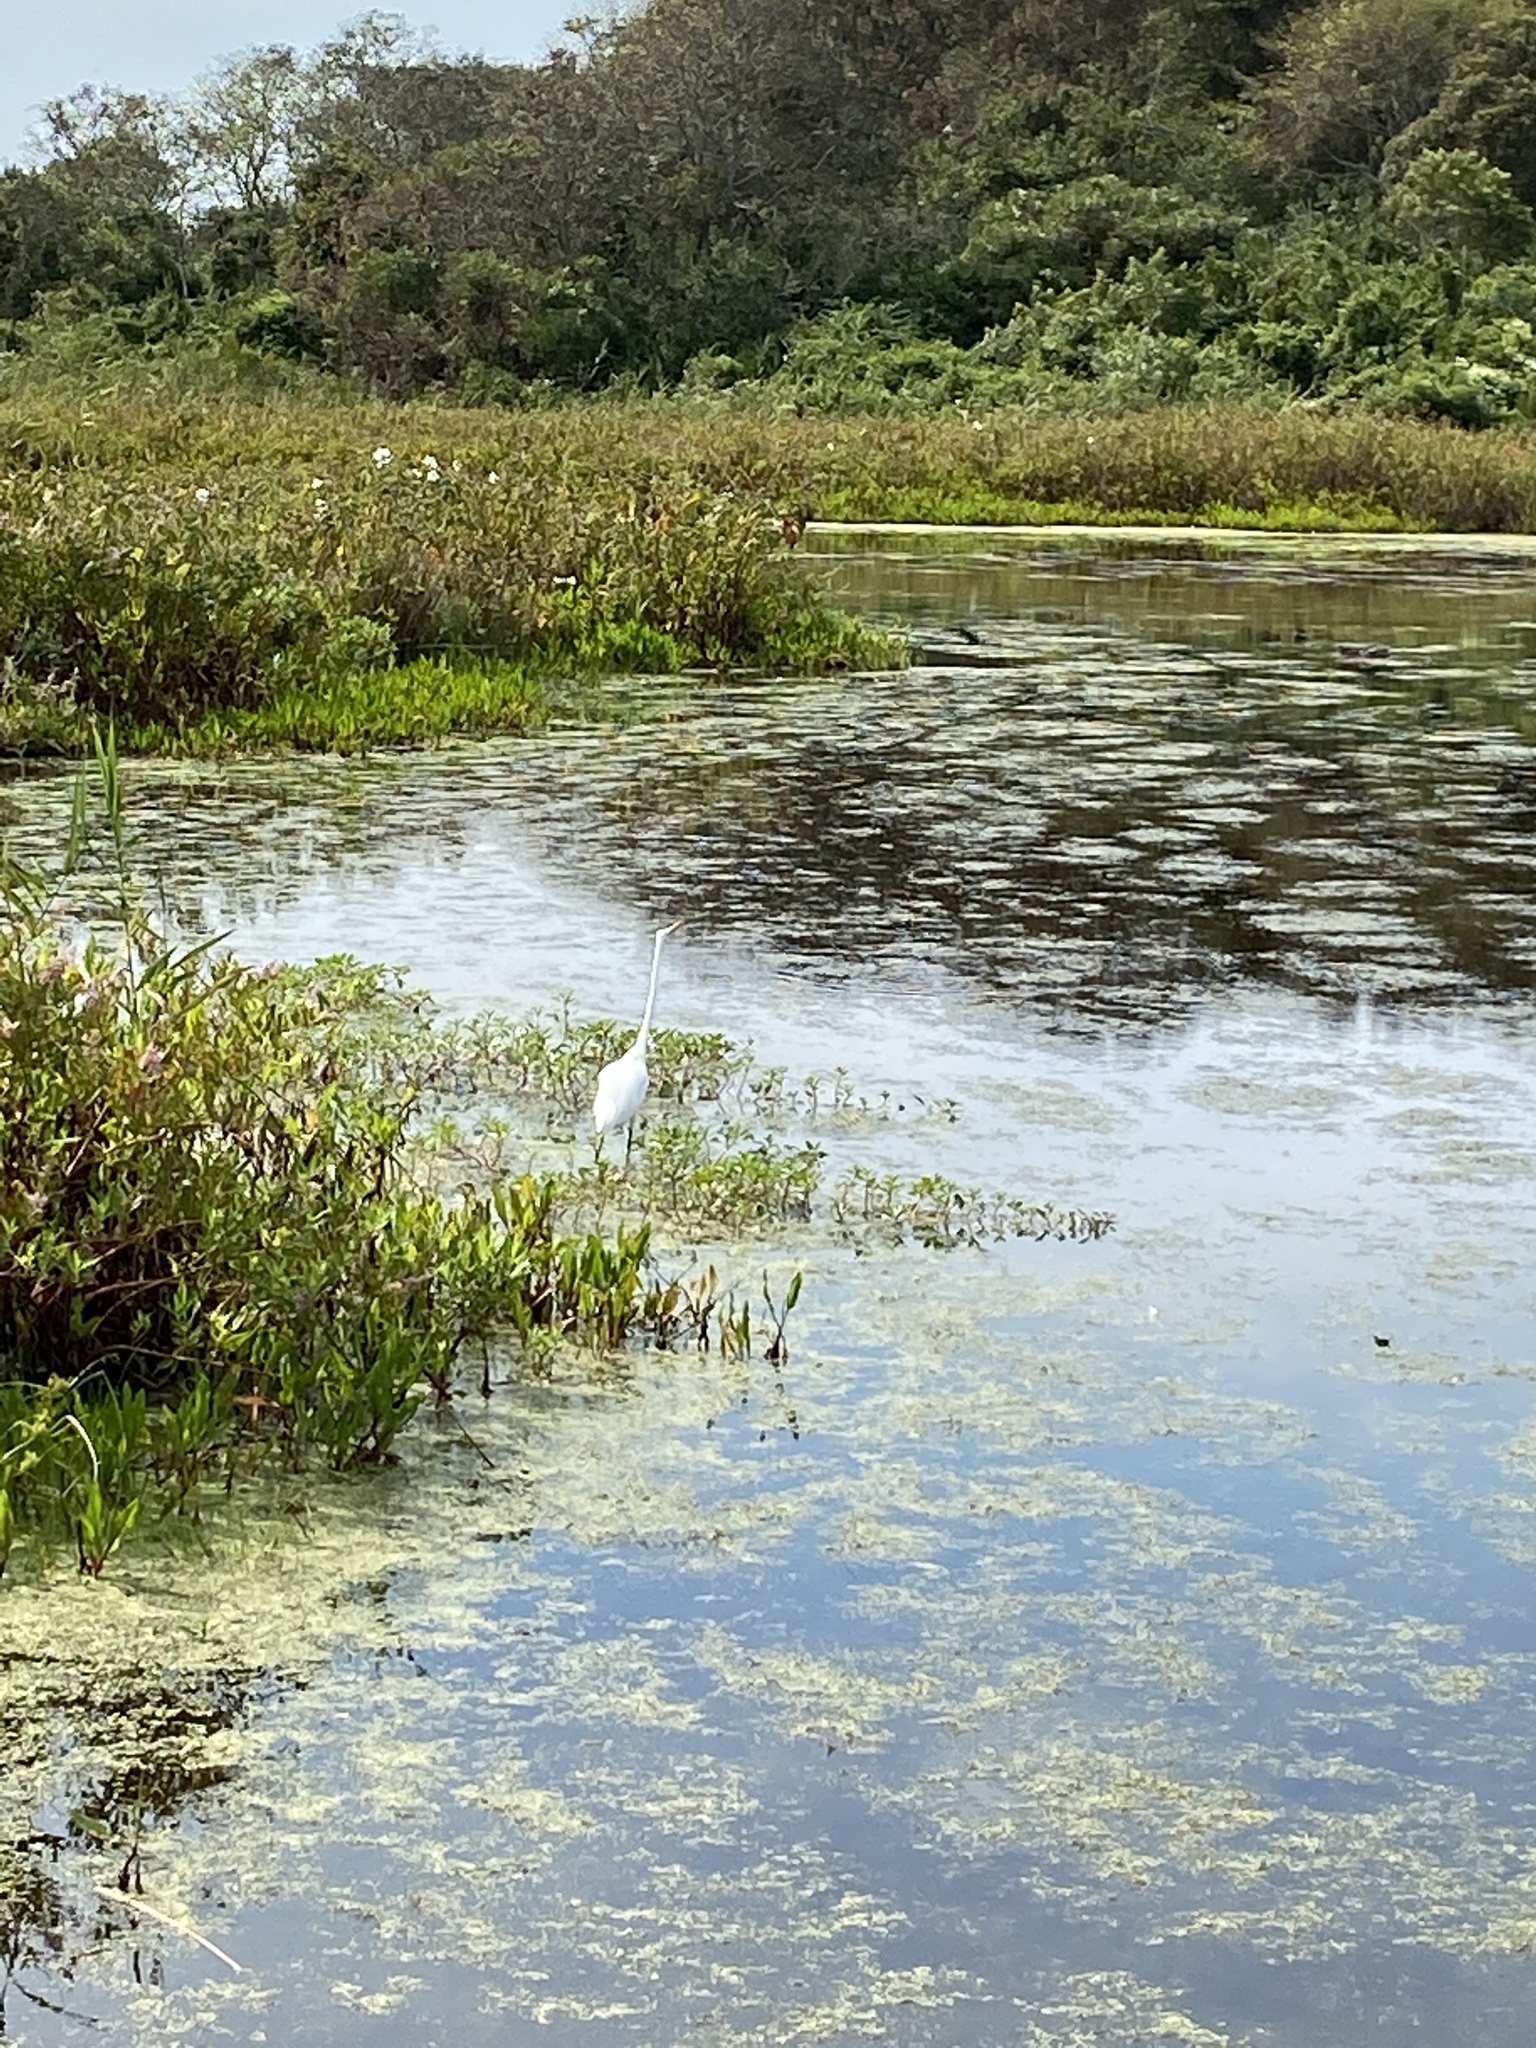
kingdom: Animalia
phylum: Chordata
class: Aves
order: Pelecaniformes
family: Ardeidae
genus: Ardea
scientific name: Ardea alba
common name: Great egret
